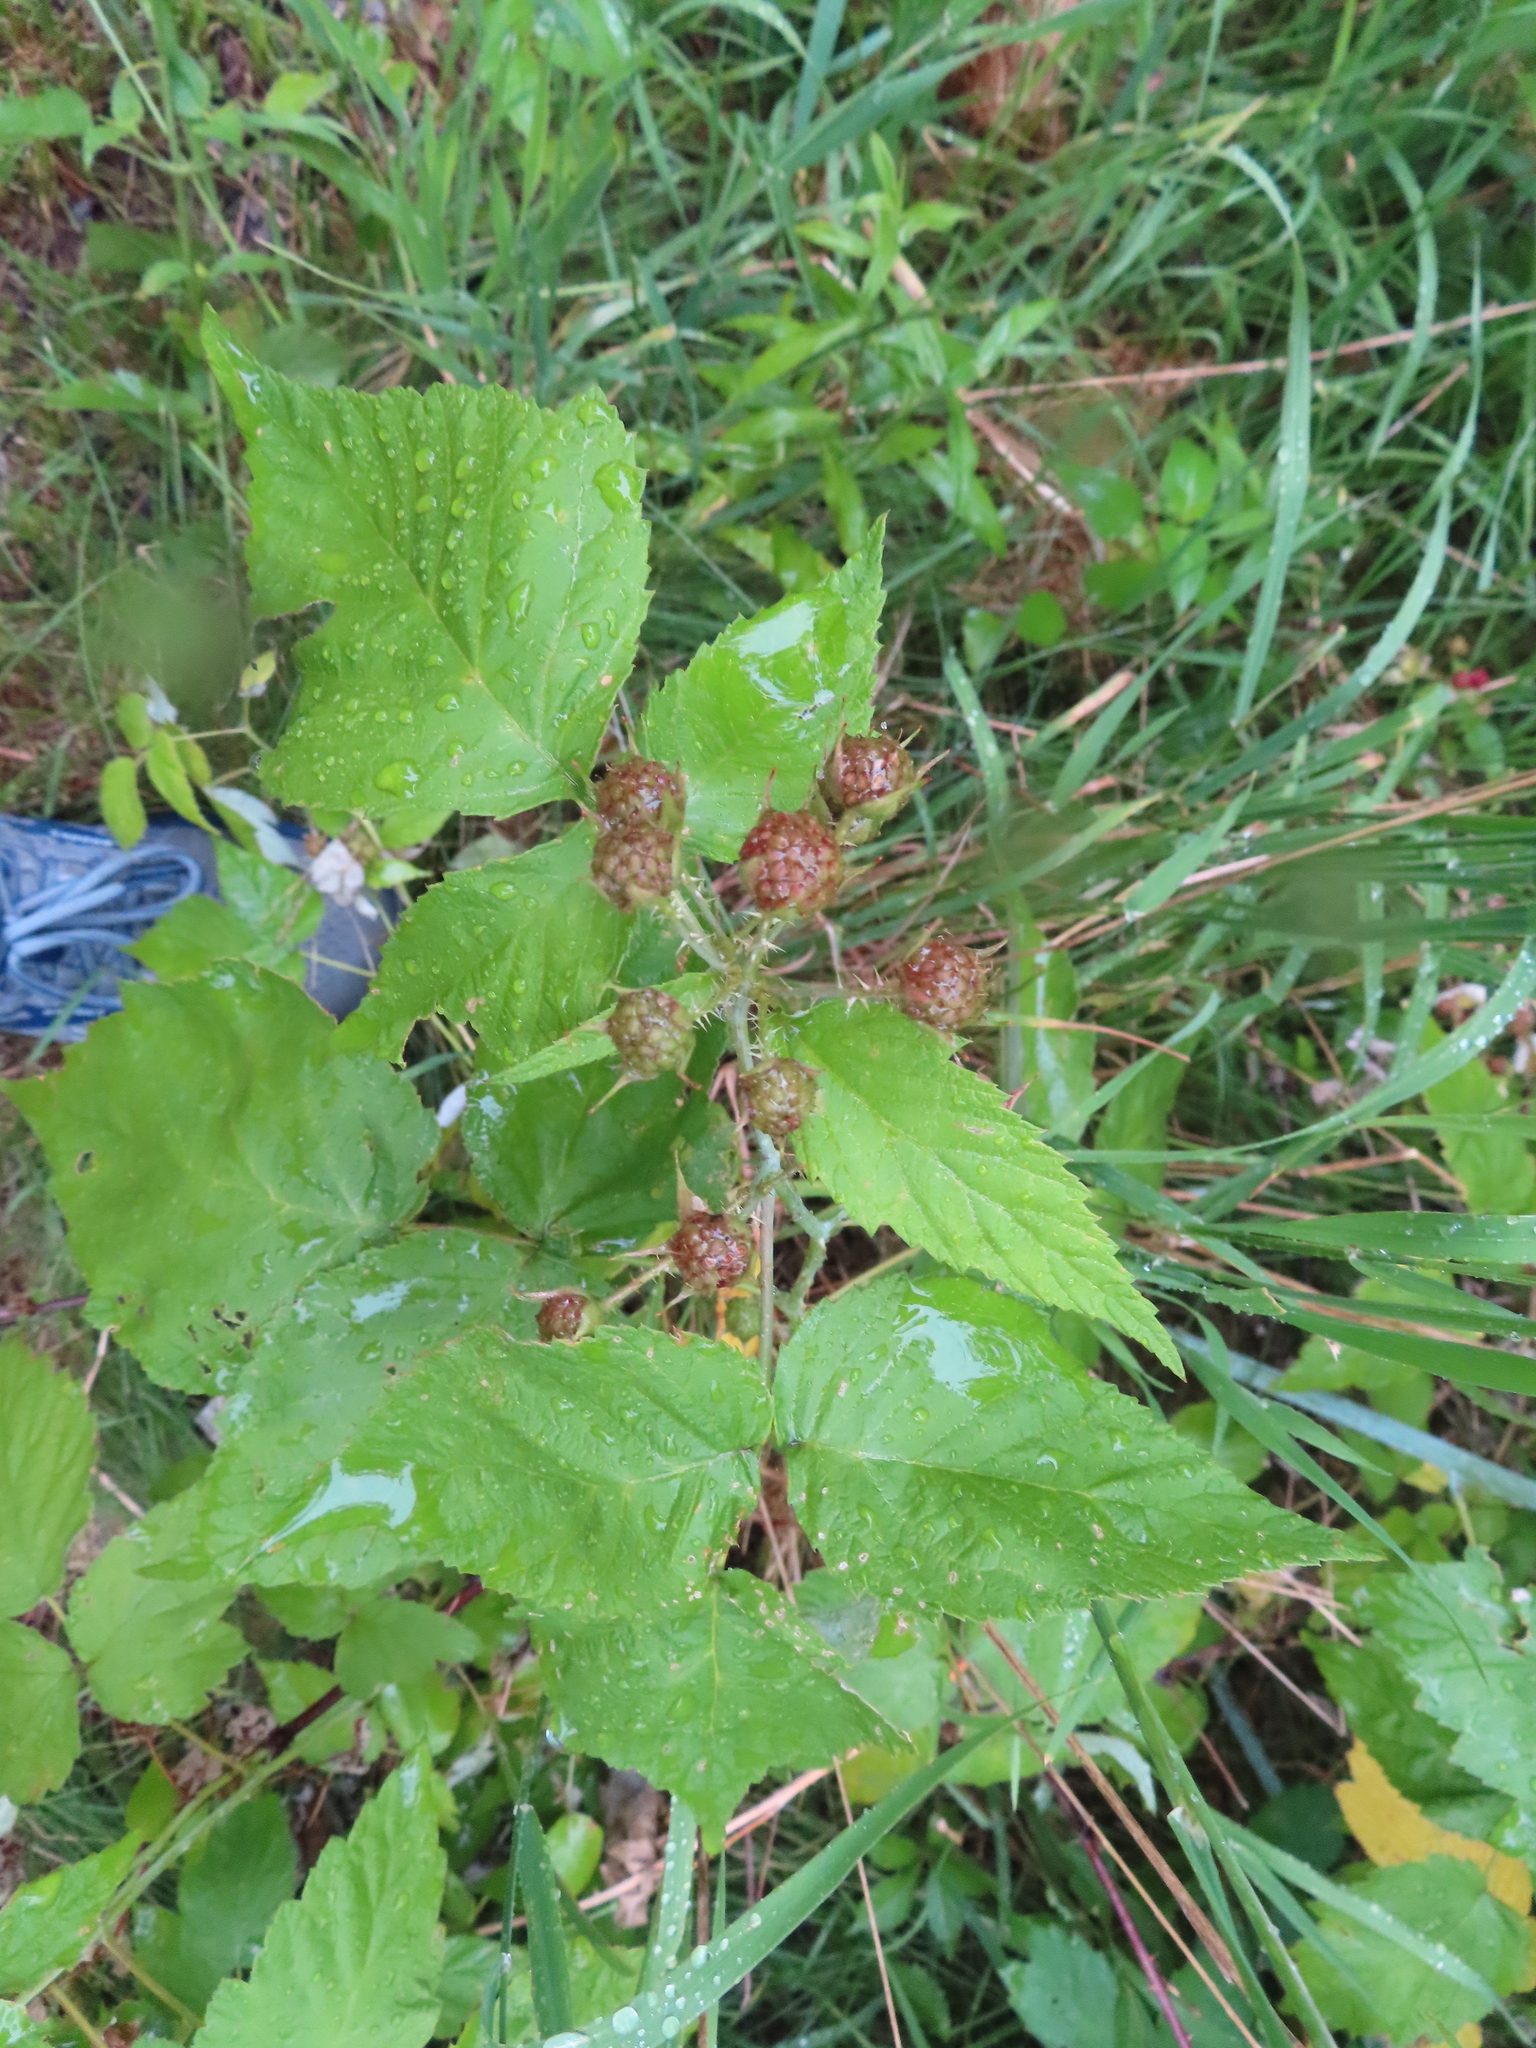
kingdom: Plantae
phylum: Tracheophyta
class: Magnoliopsida
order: Rosales
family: Rosaceae
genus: Rubus
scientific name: Rubus occidentalis
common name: Black raspberry
